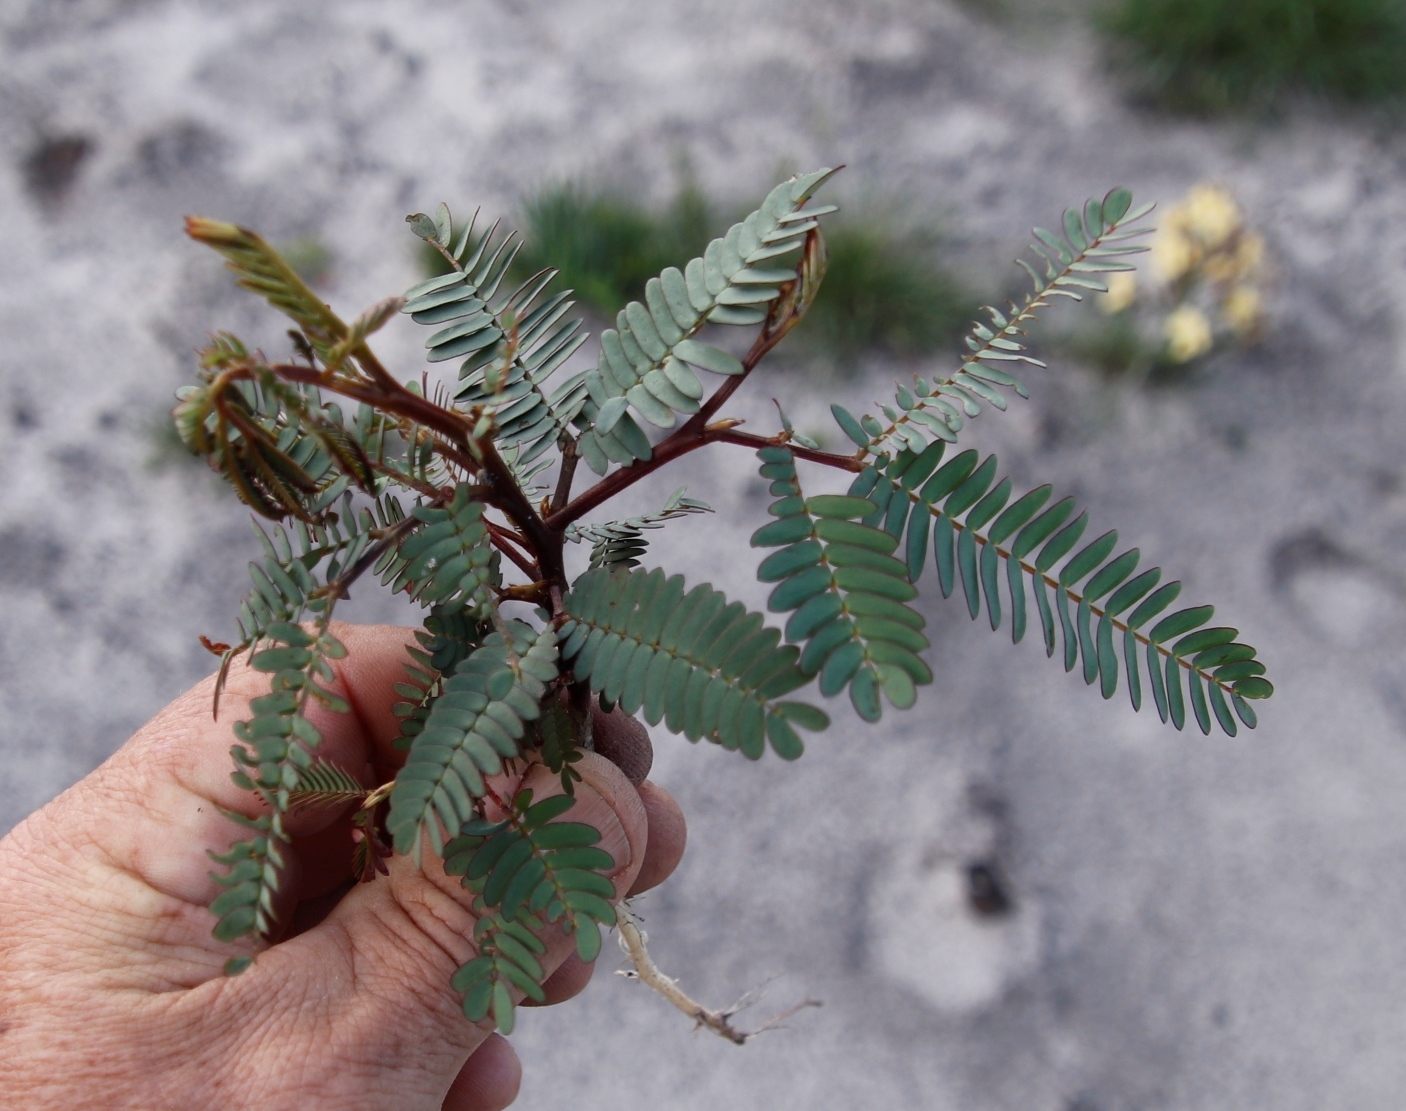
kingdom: Plantae
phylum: Tracheophyta
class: Magnoliopsida
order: Fabales
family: Fabaceae
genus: Paraserianthes
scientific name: Paraserianthes lophantha
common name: Plume albizia
